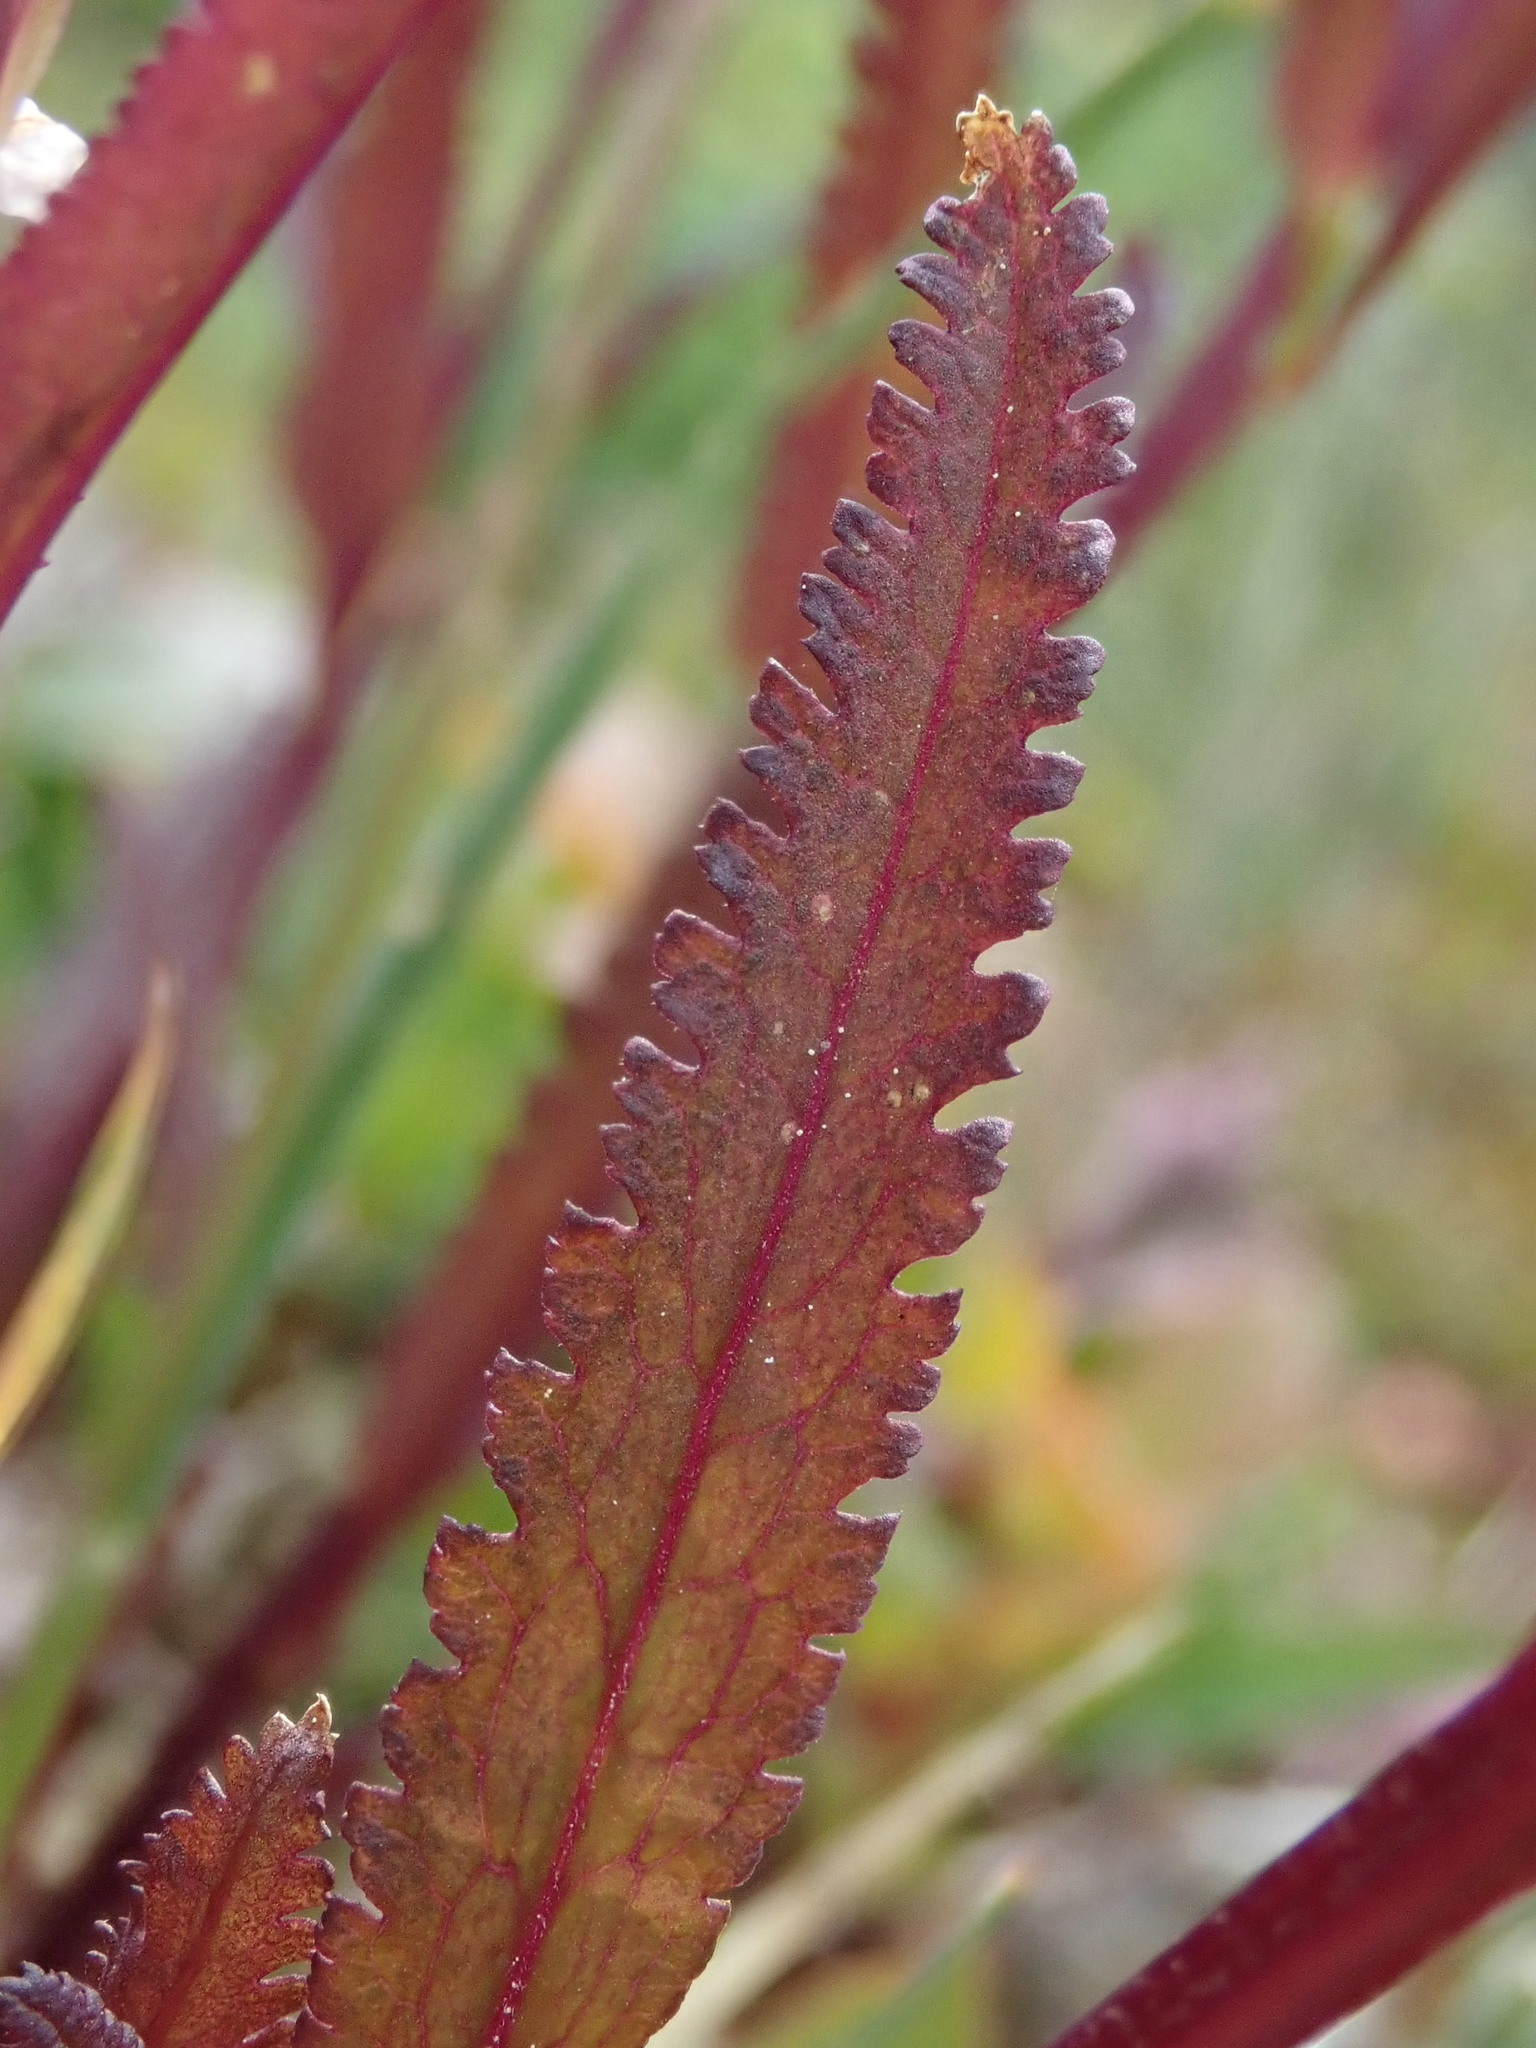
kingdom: Plantae
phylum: Tracheophyta
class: Magnoliopsida
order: Lamiales
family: Orobanchaceae
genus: Pedicularis
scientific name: Pedicularis racemosa
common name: Leafy lousewort
